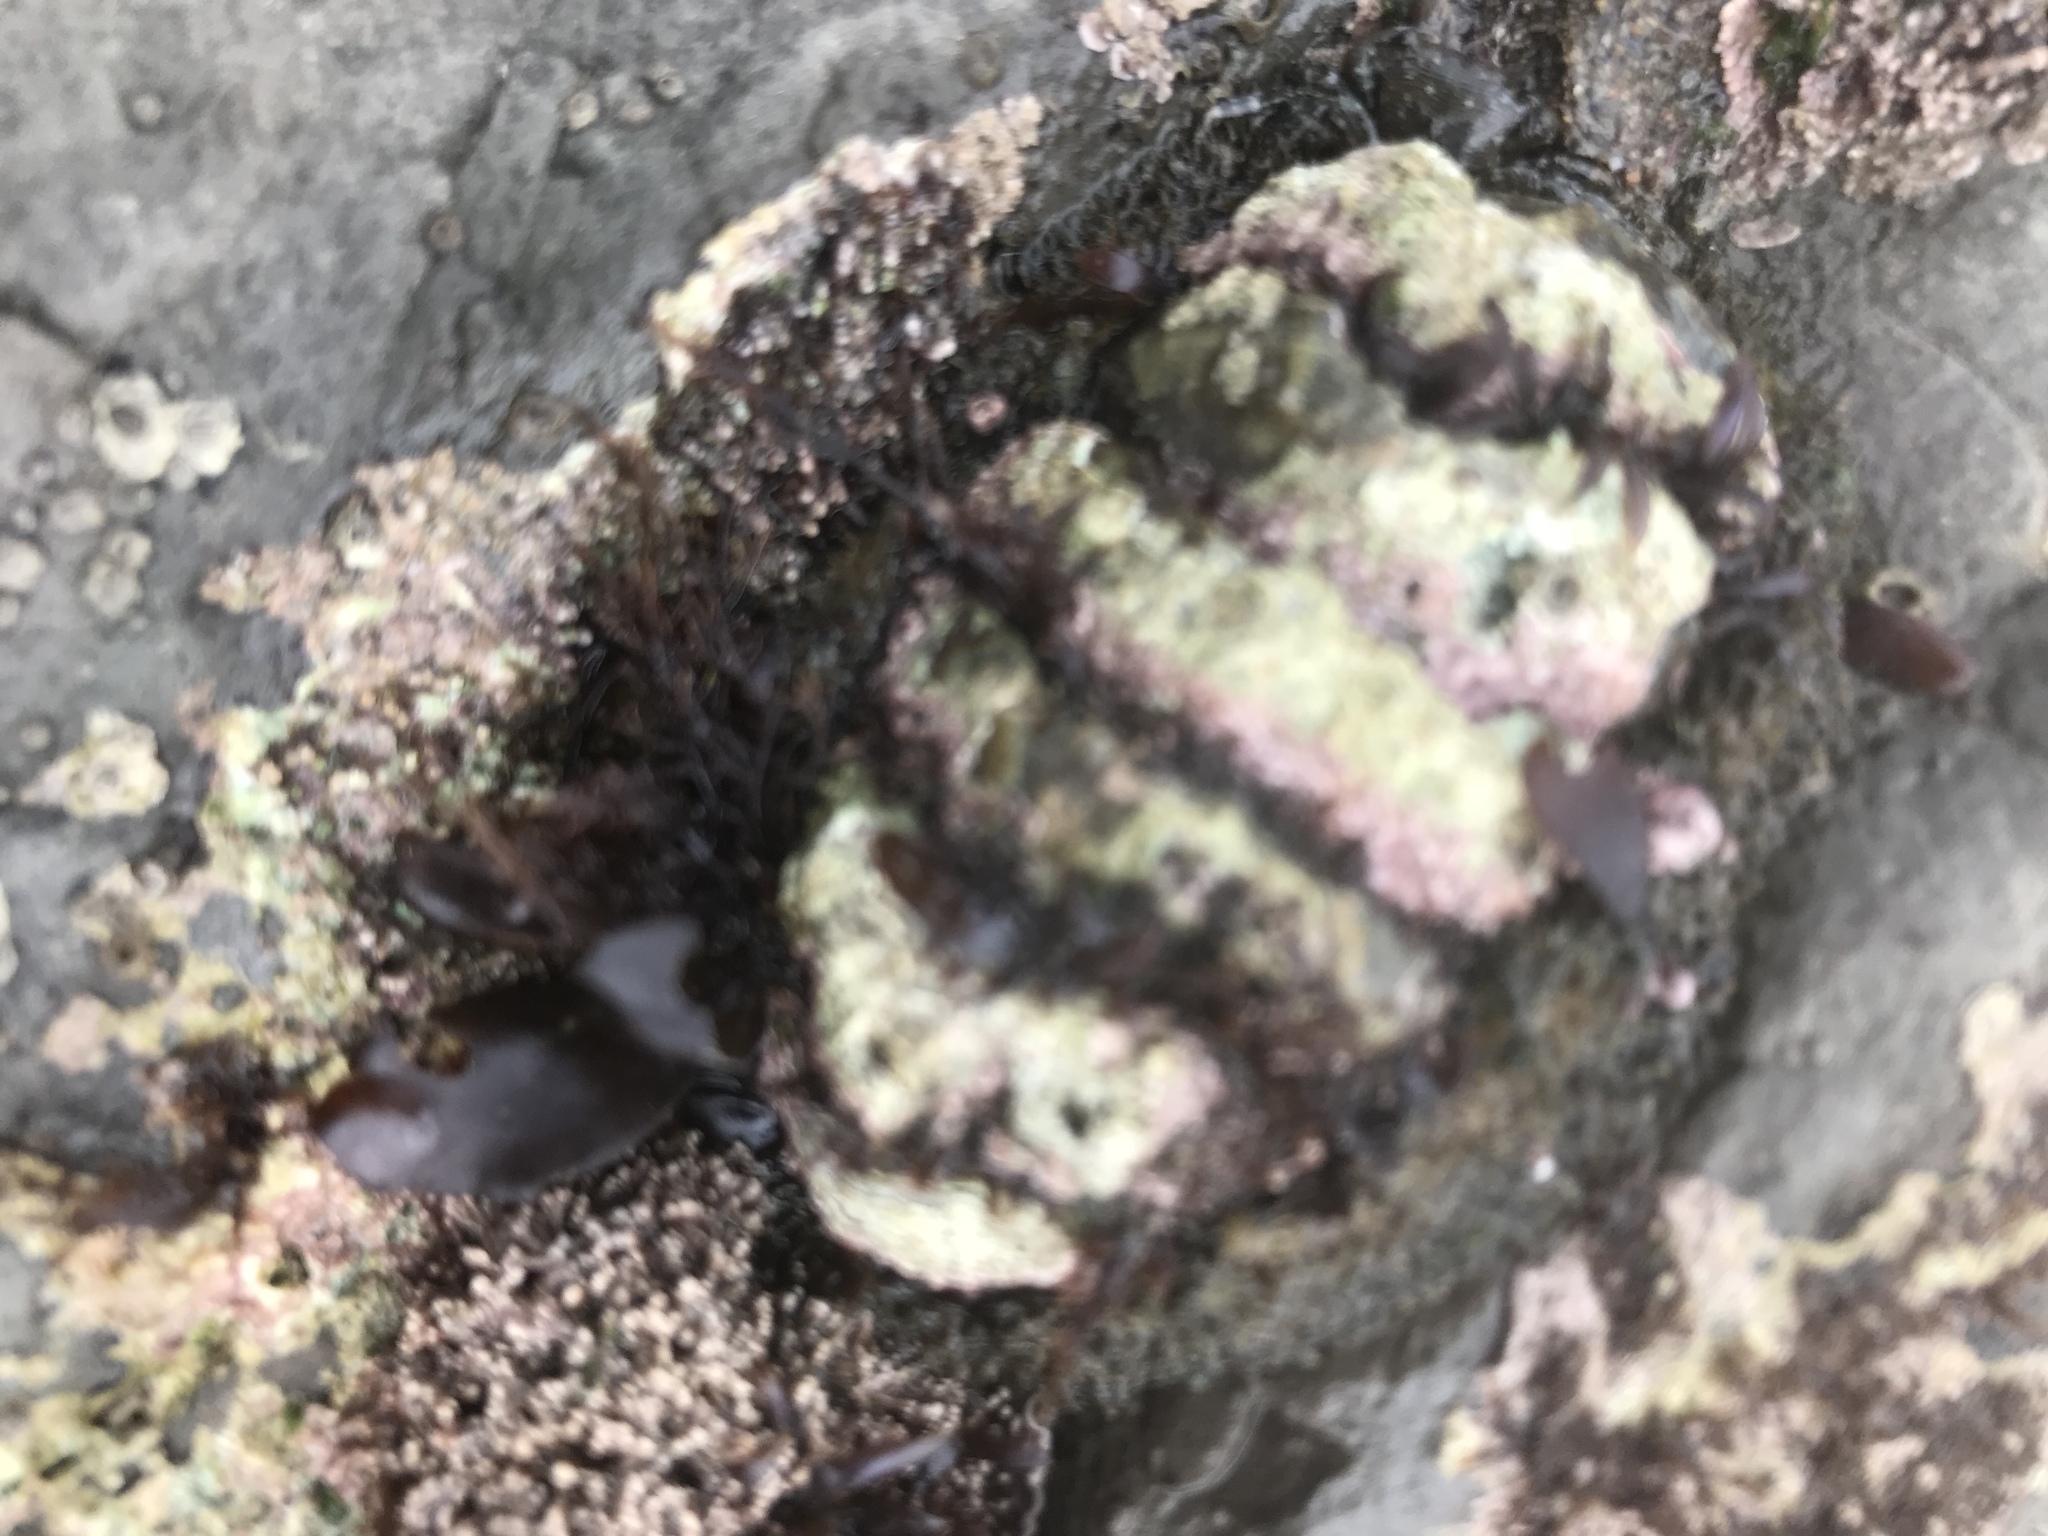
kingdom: Animalia
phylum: Mollusca
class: Polyplacophora
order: Chitonida
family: Mopaliidae
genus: Mopalia
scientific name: Mopalia muscosa
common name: Mossy chiton
